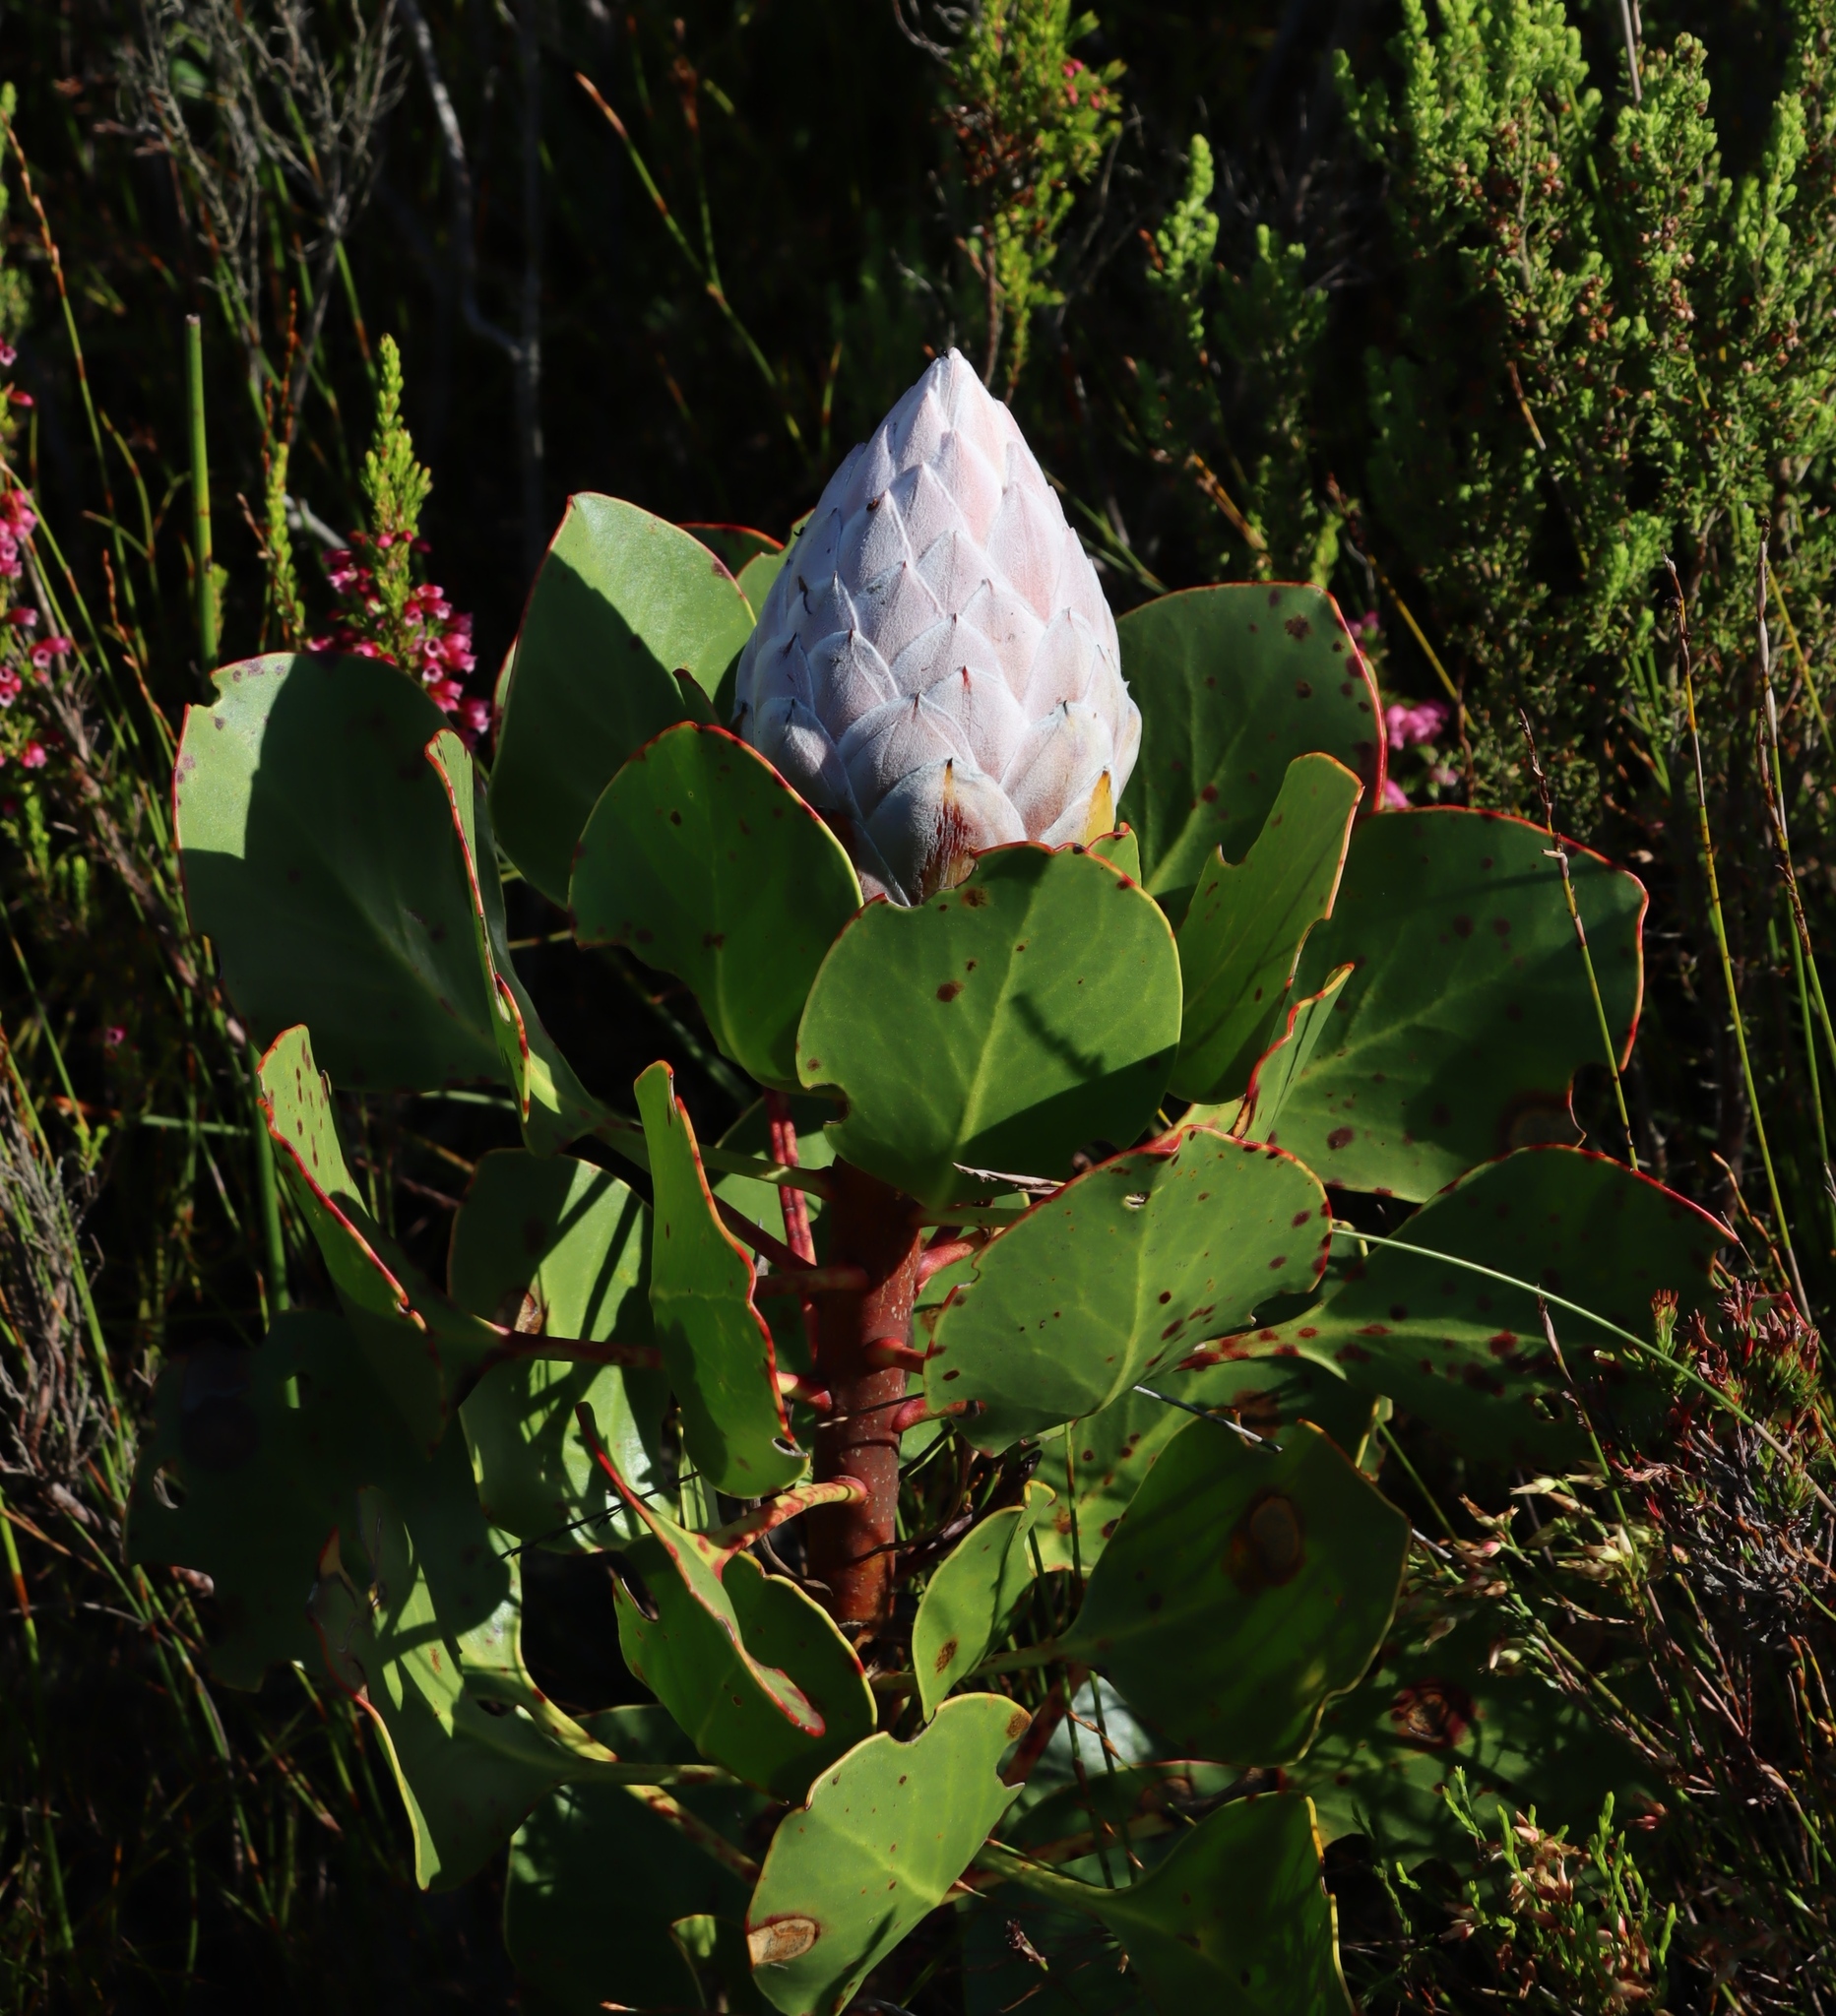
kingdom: Plantae
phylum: Tracheophyta
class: Magnoliopsida
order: Proteales
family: Proteaceae
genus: Protea
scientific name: Protea cynaroides
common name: King protea
